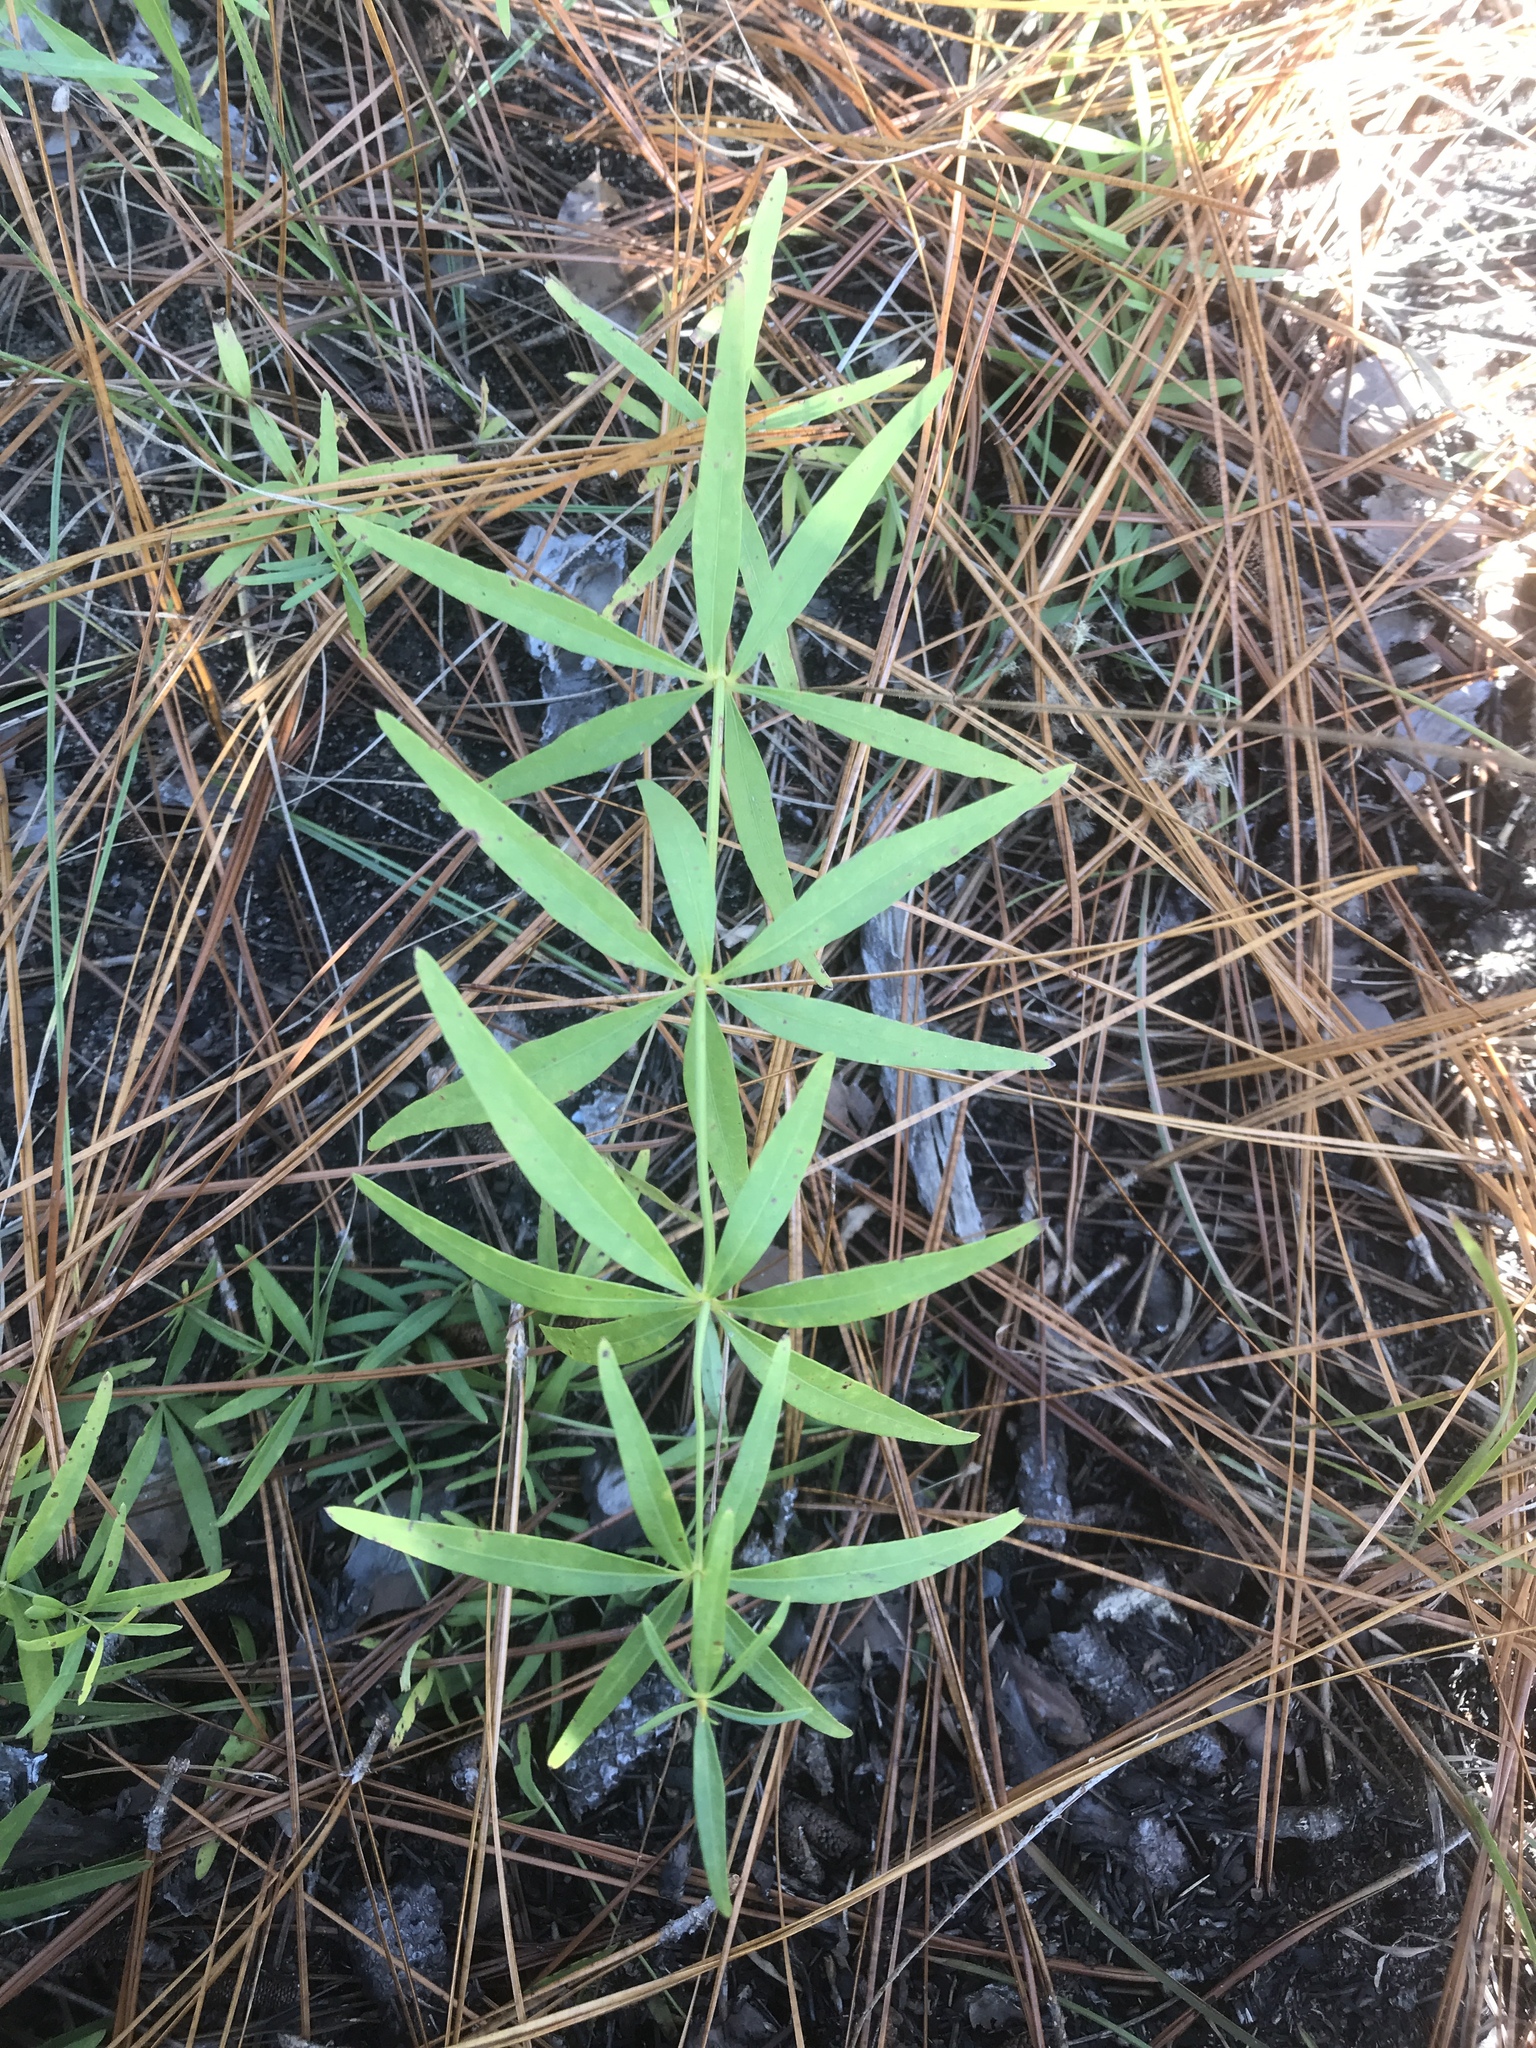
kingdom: Plantae
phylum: Tracheophyta
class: Magnoliopsida
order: Asterales
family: Asteraceae
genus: Coreopsis
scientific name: Coreopsis major
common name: Forest tickseed
